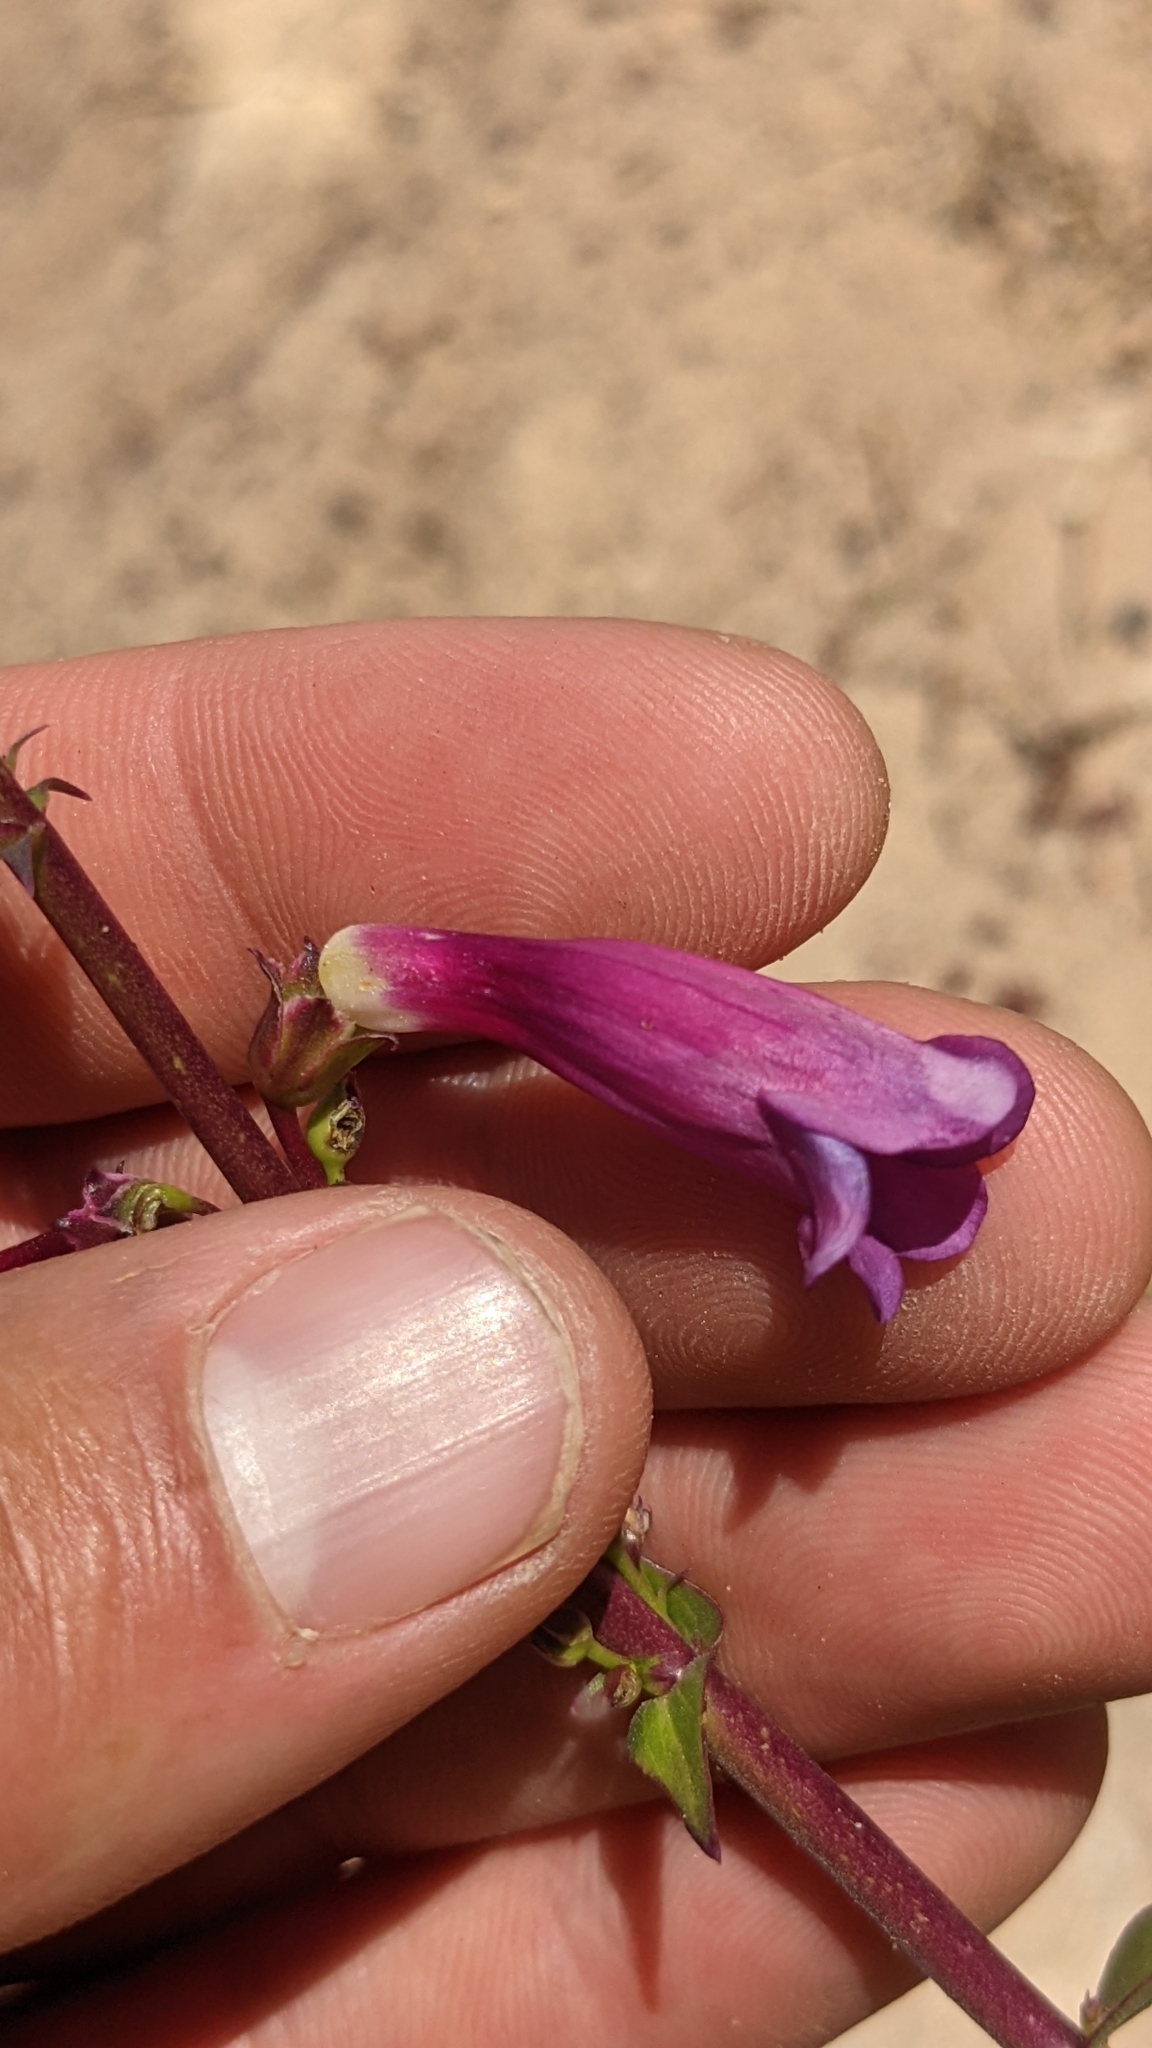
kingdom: Plantae
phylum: Tracheophyta
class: Magnoliopsida
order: Lamiales
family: Plantaginaceae
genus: Penstemon
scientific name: Penstemon jonesii
